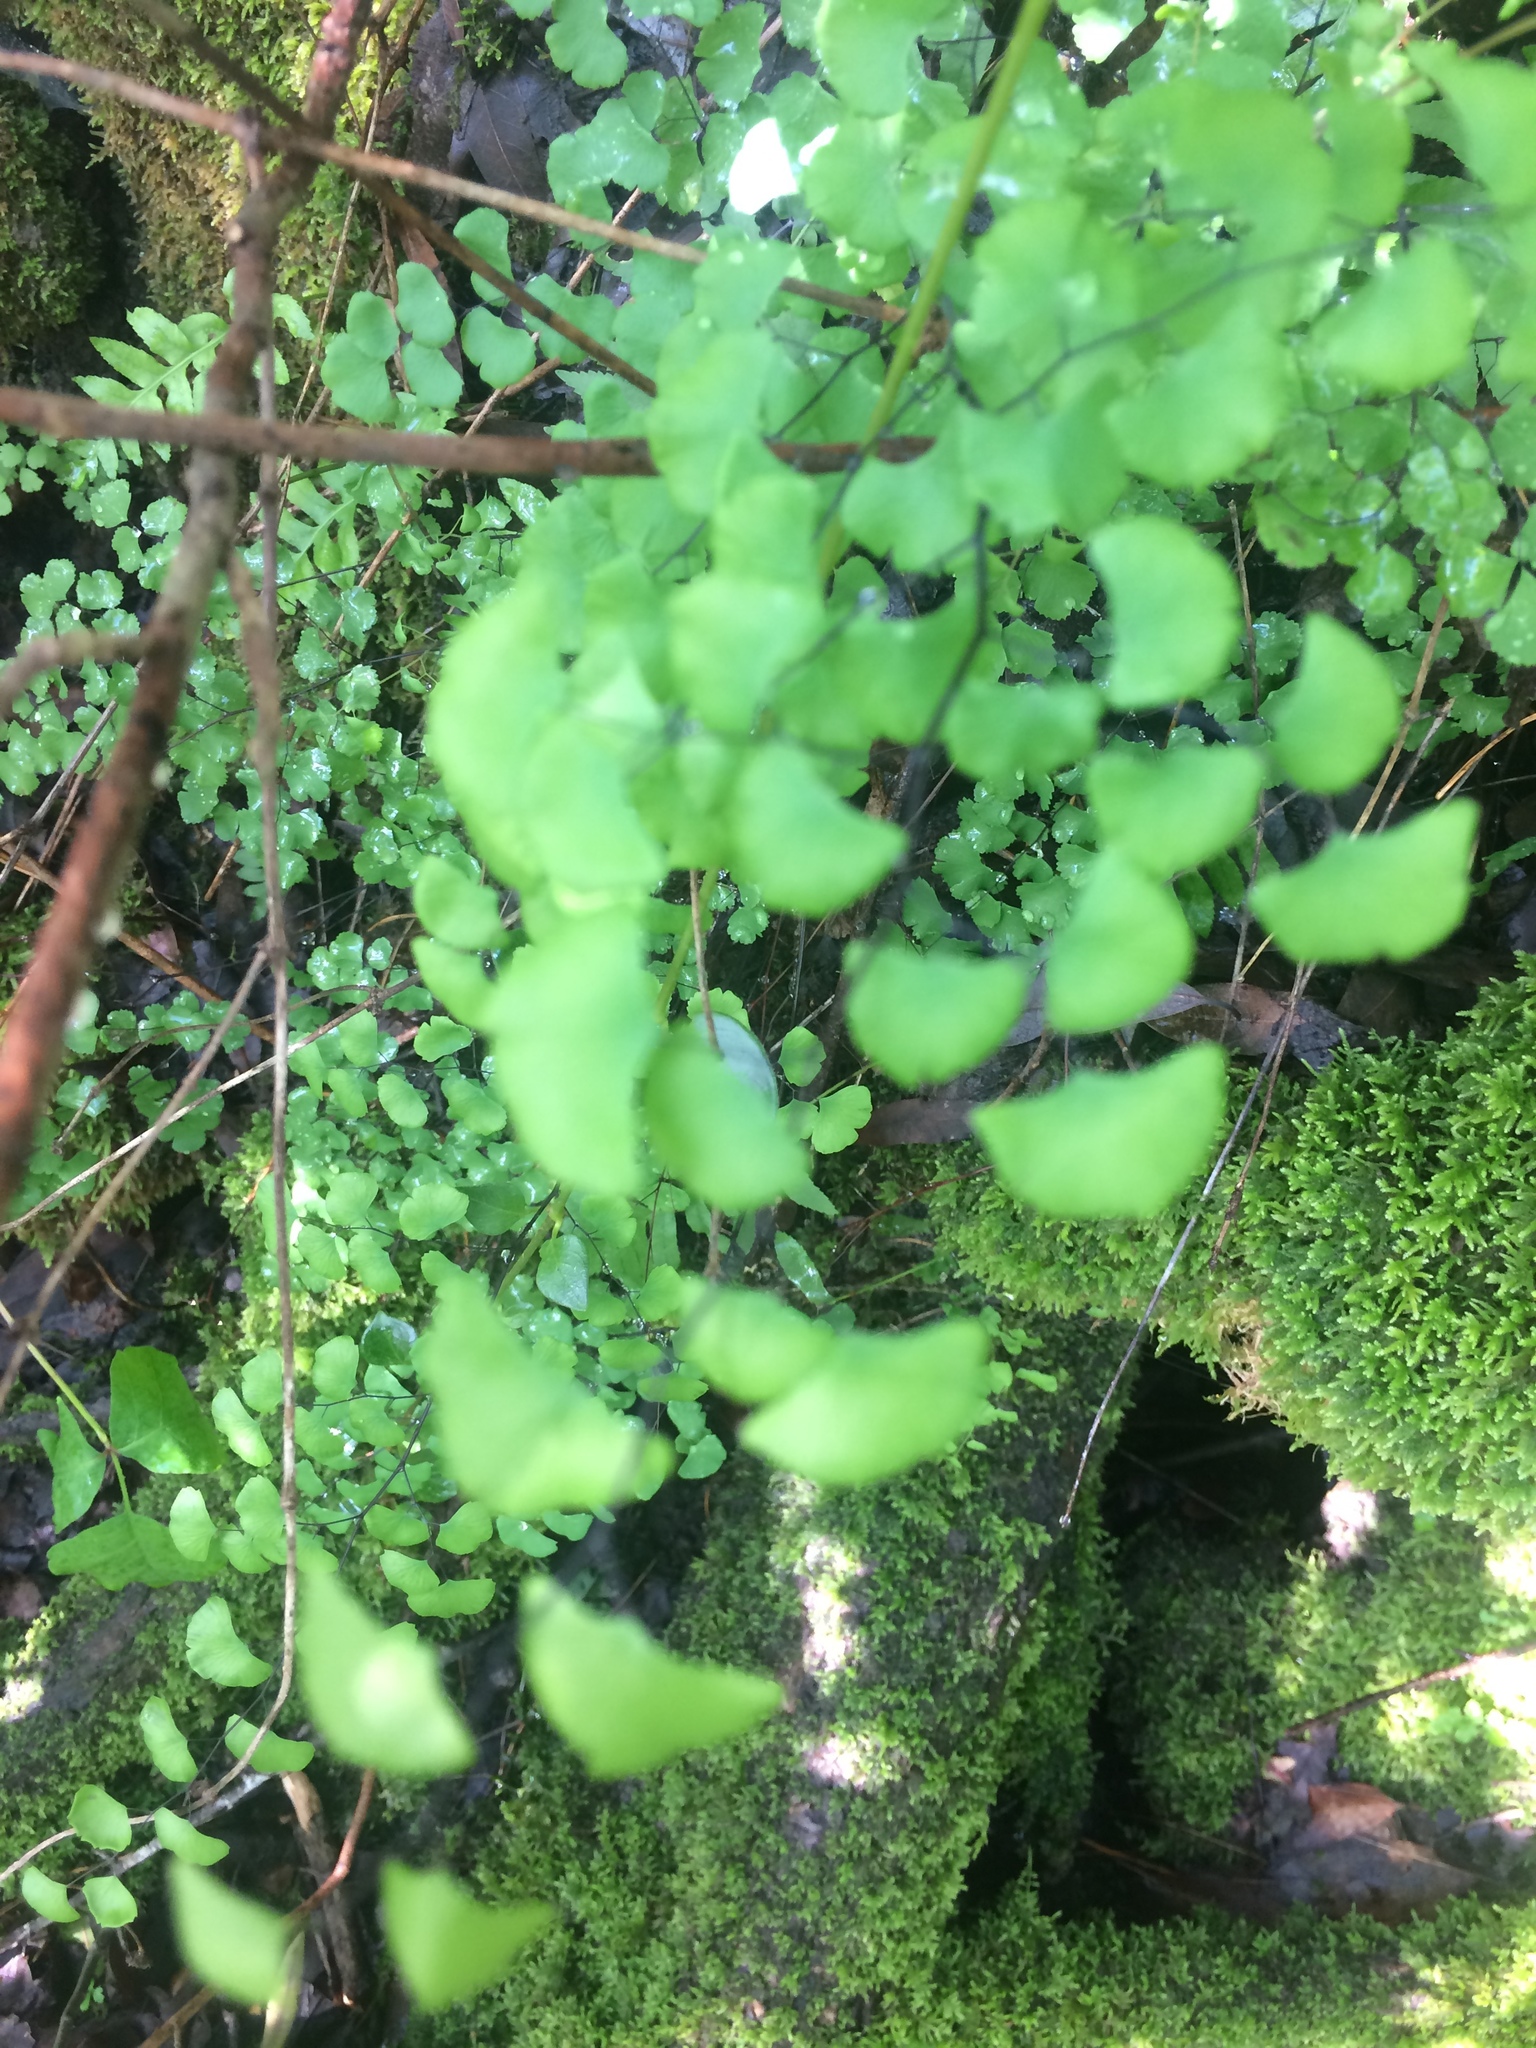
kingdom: Plantae
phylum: Tracheophyta
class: Polypodiopsida
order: Polypodiales
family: Pteridaceae
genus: Adiantum
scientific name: Adiantum jordanii
